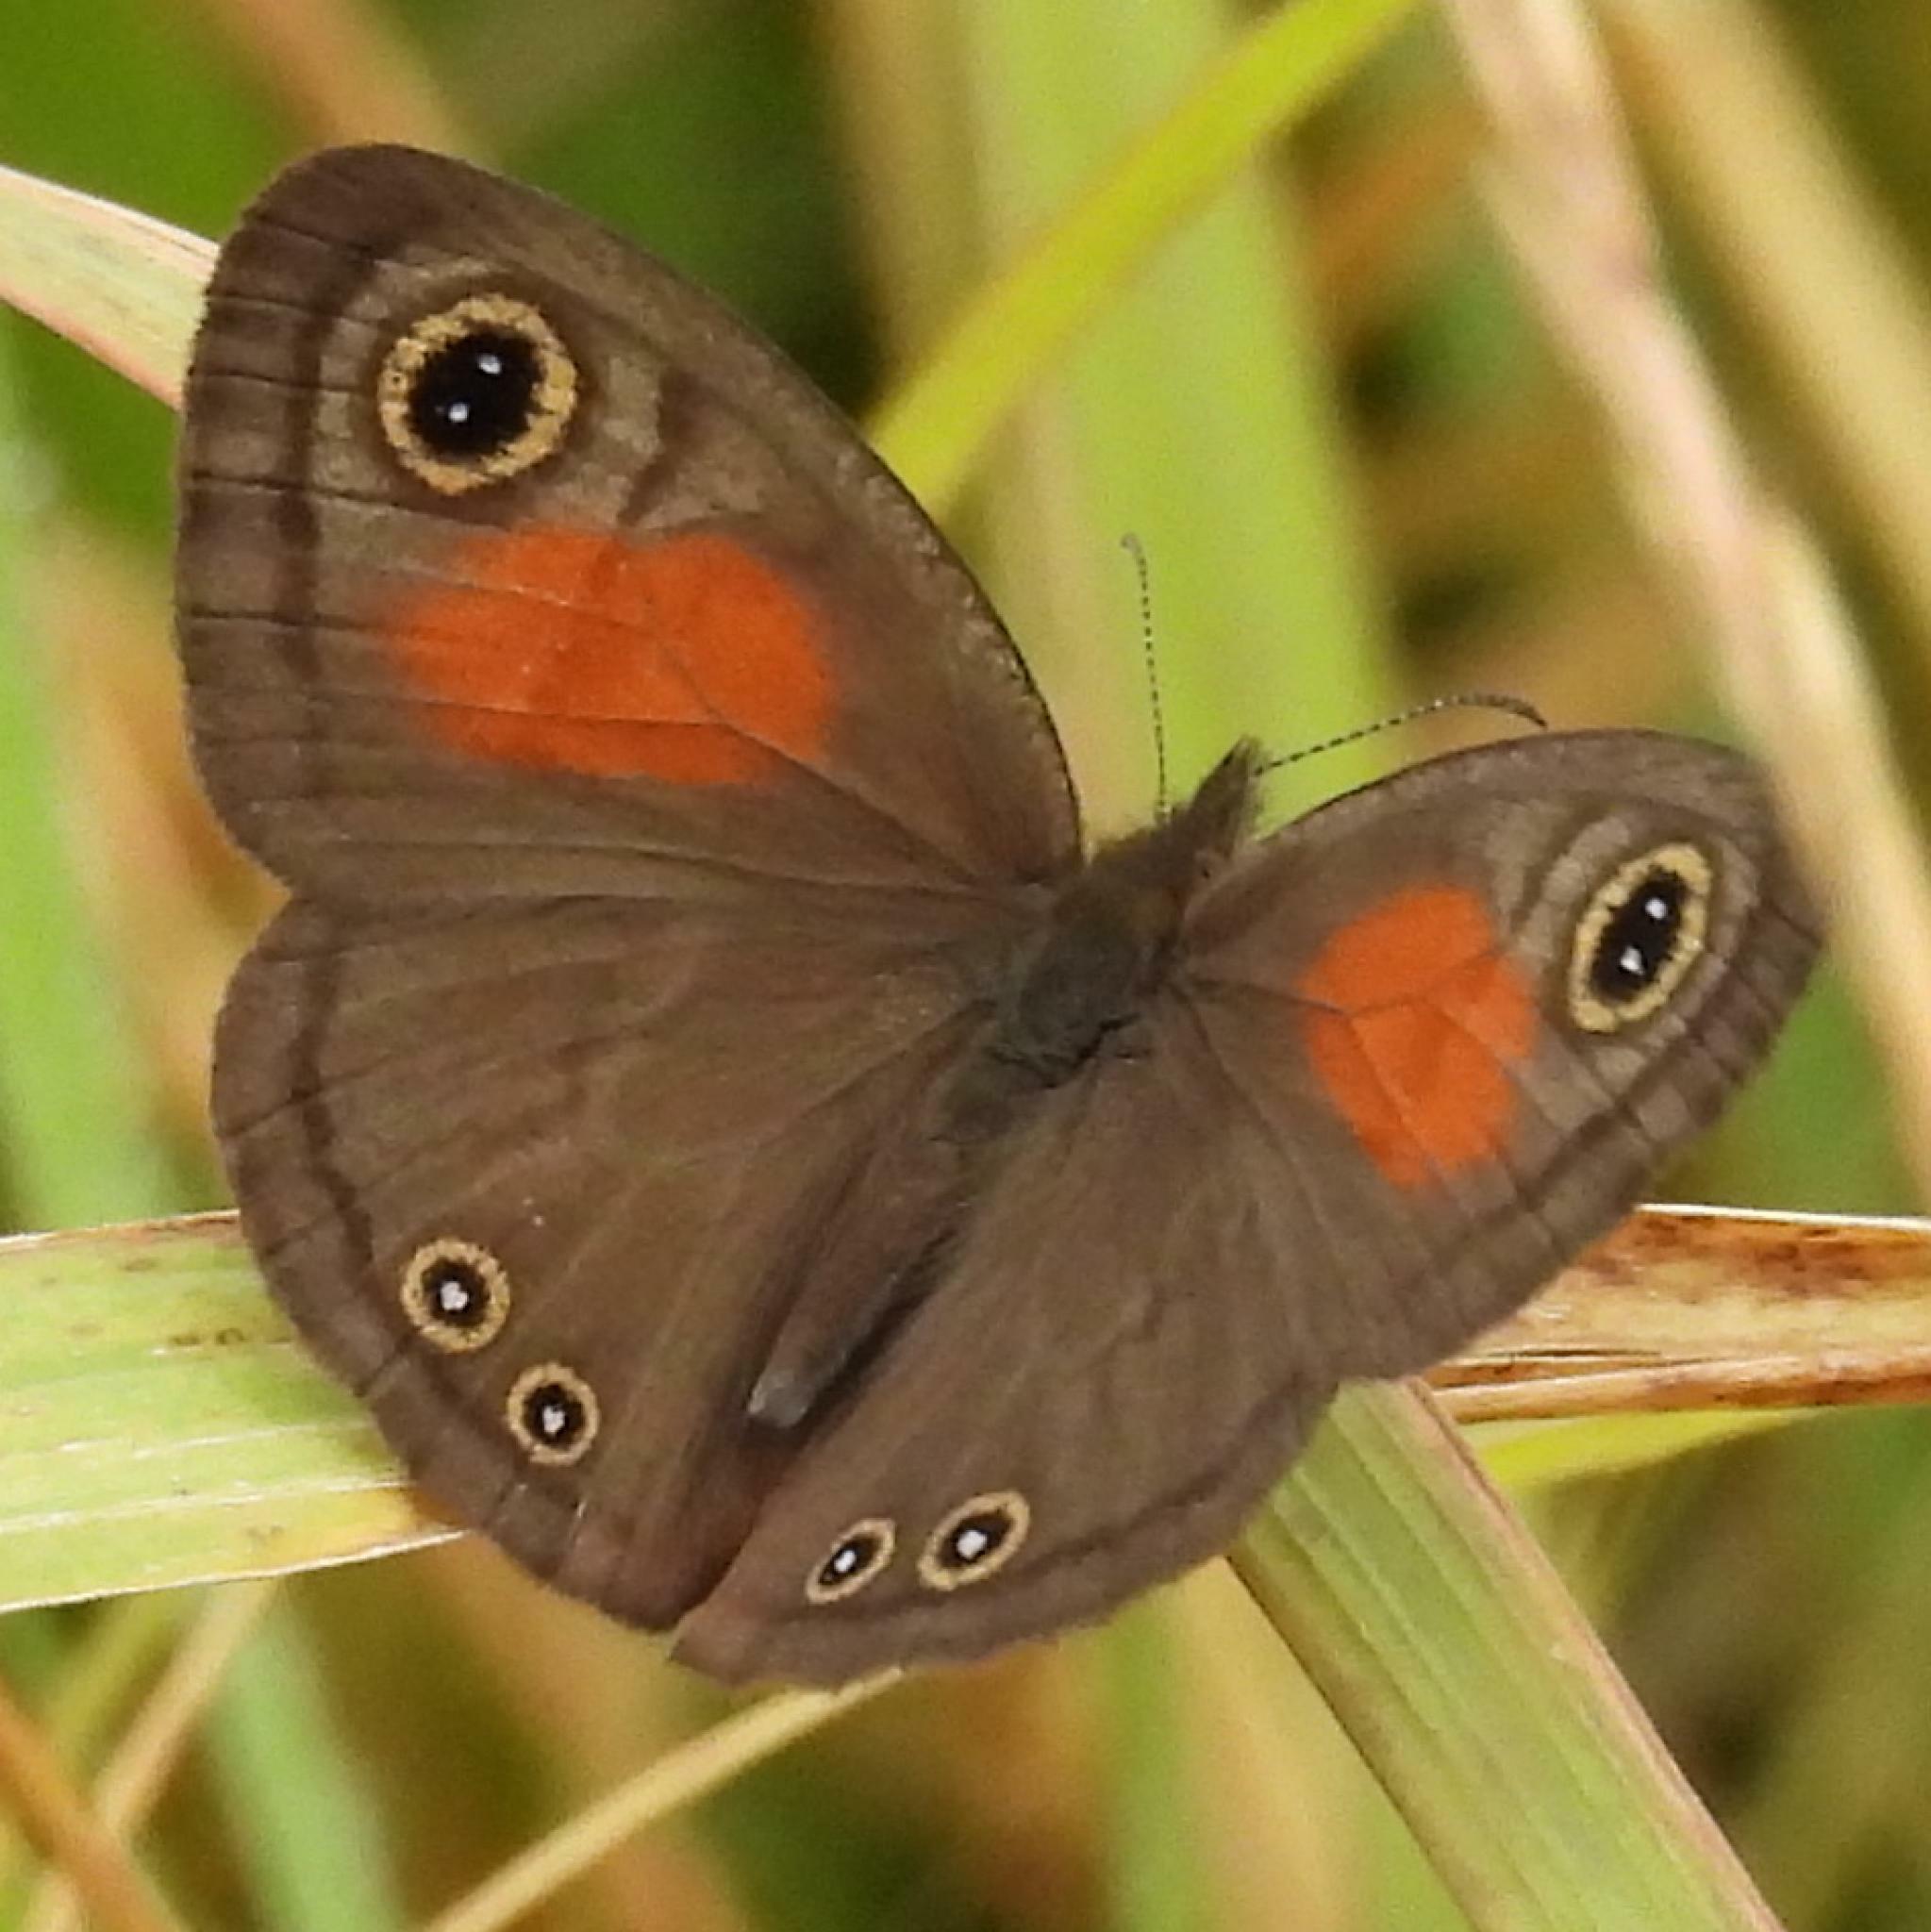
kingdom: Animalia
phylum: Arthropoda
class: Insecta
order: Lepidoptera
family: Nymphalidae
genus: Cassionympha
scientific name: Cassionympha cassius
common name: Rainforest brown
